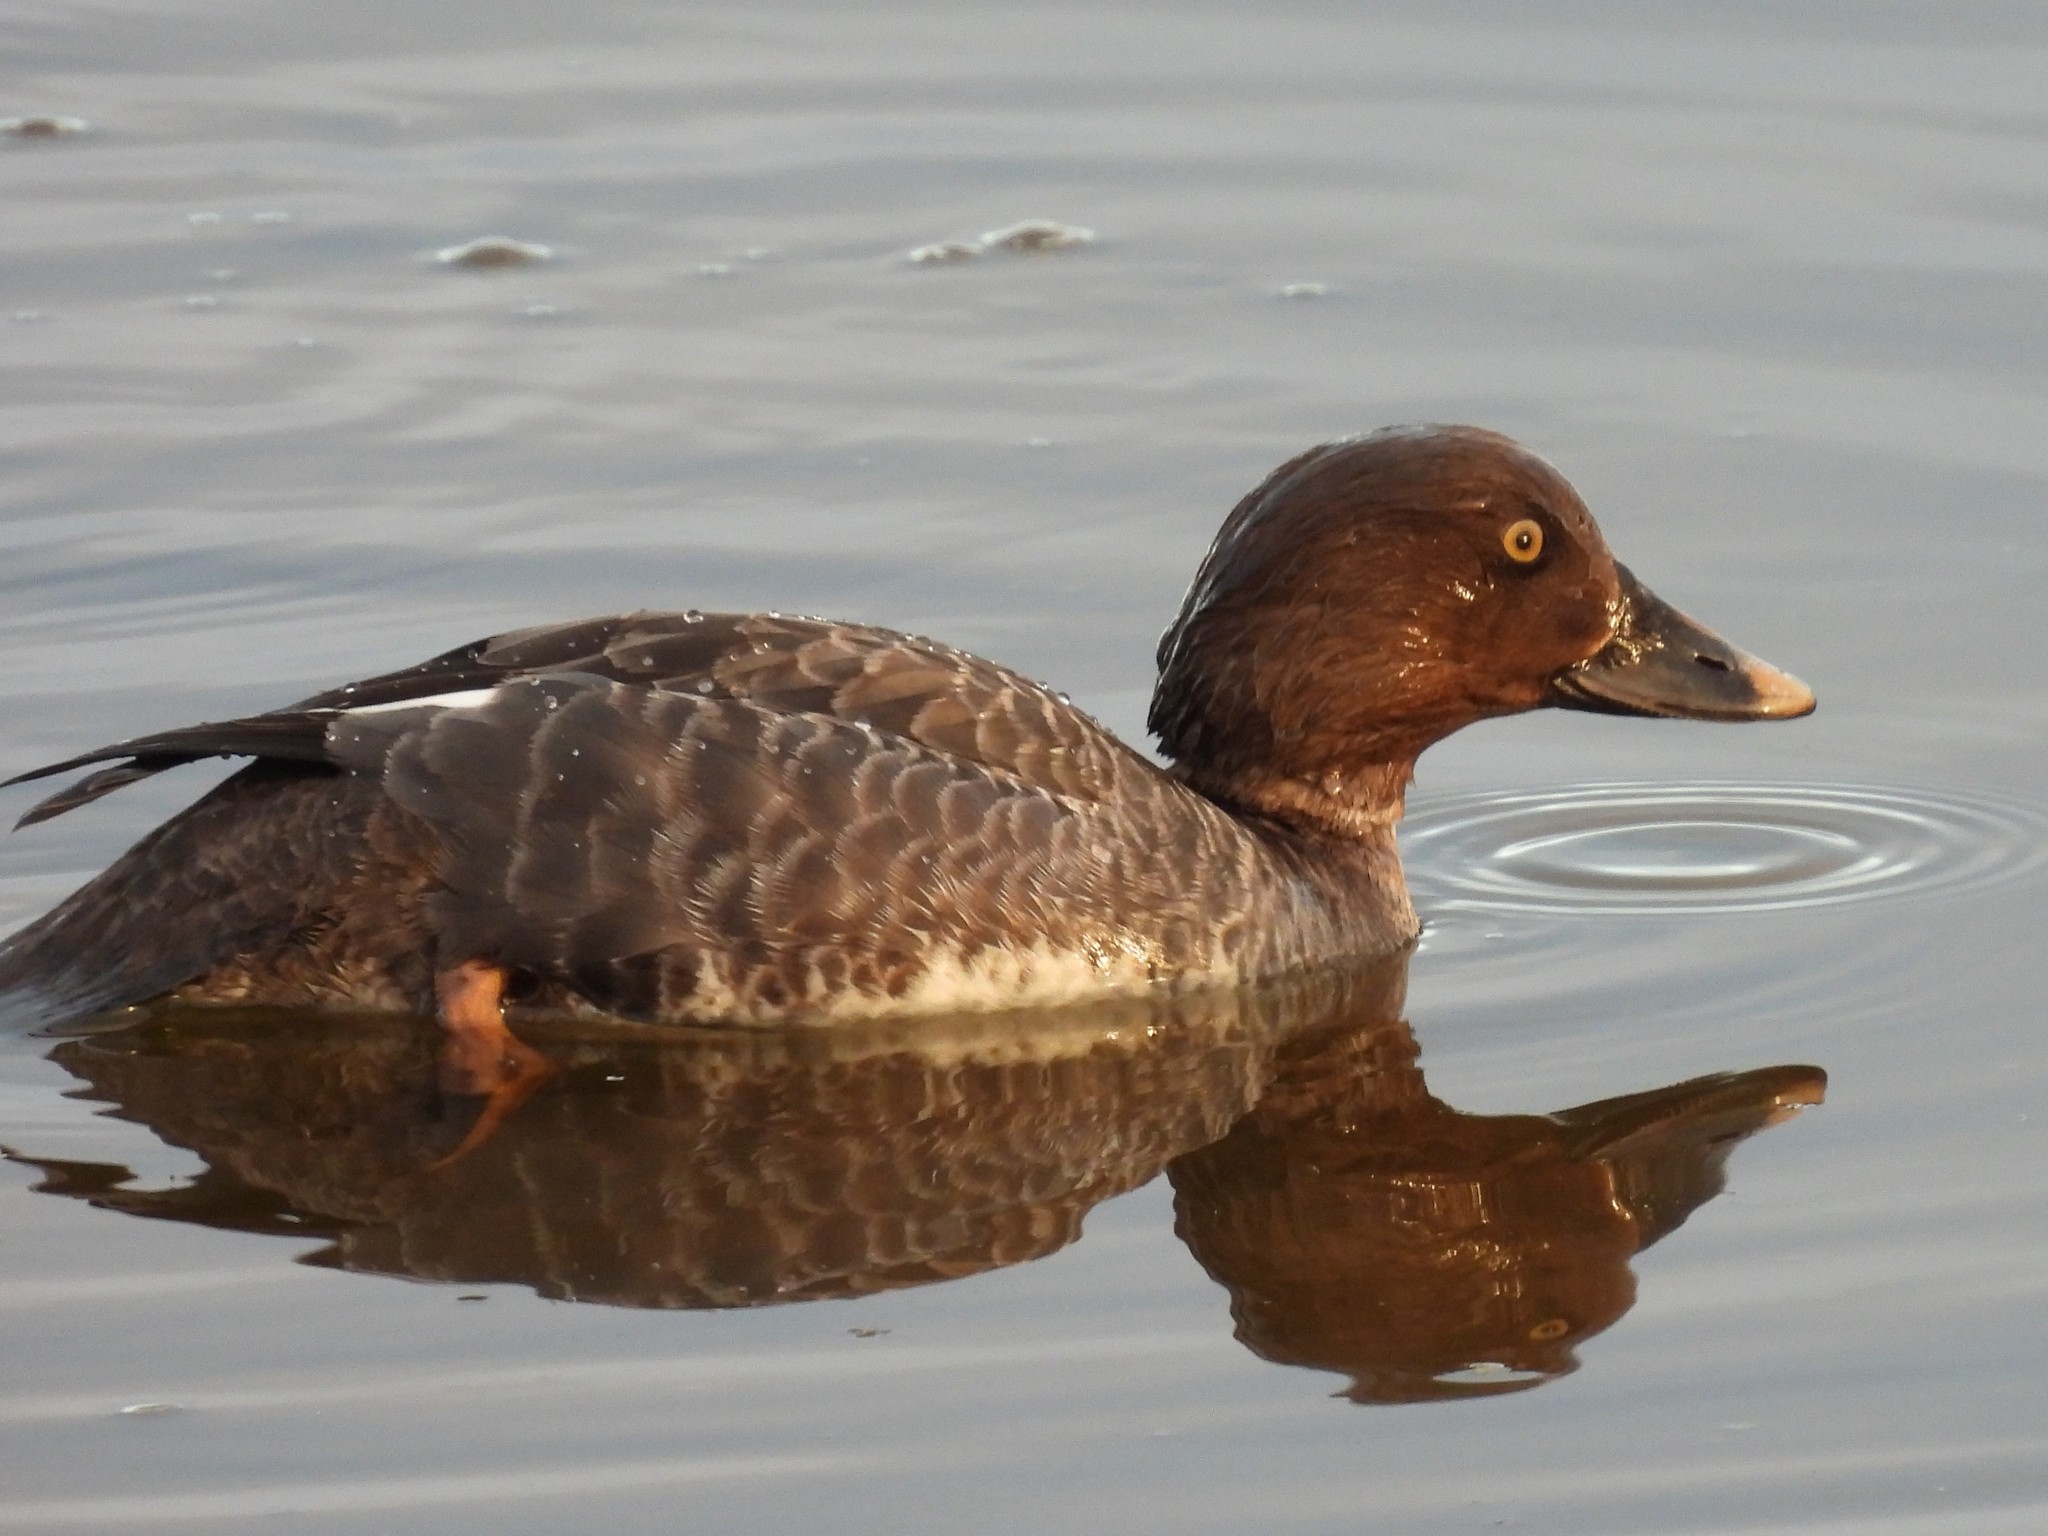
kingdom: Animalia
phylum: Chordata
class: Aves
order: Anseriformes
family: Anatidae
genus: Bucephala
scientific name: Bucephala clangula
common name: Common goldeneye
